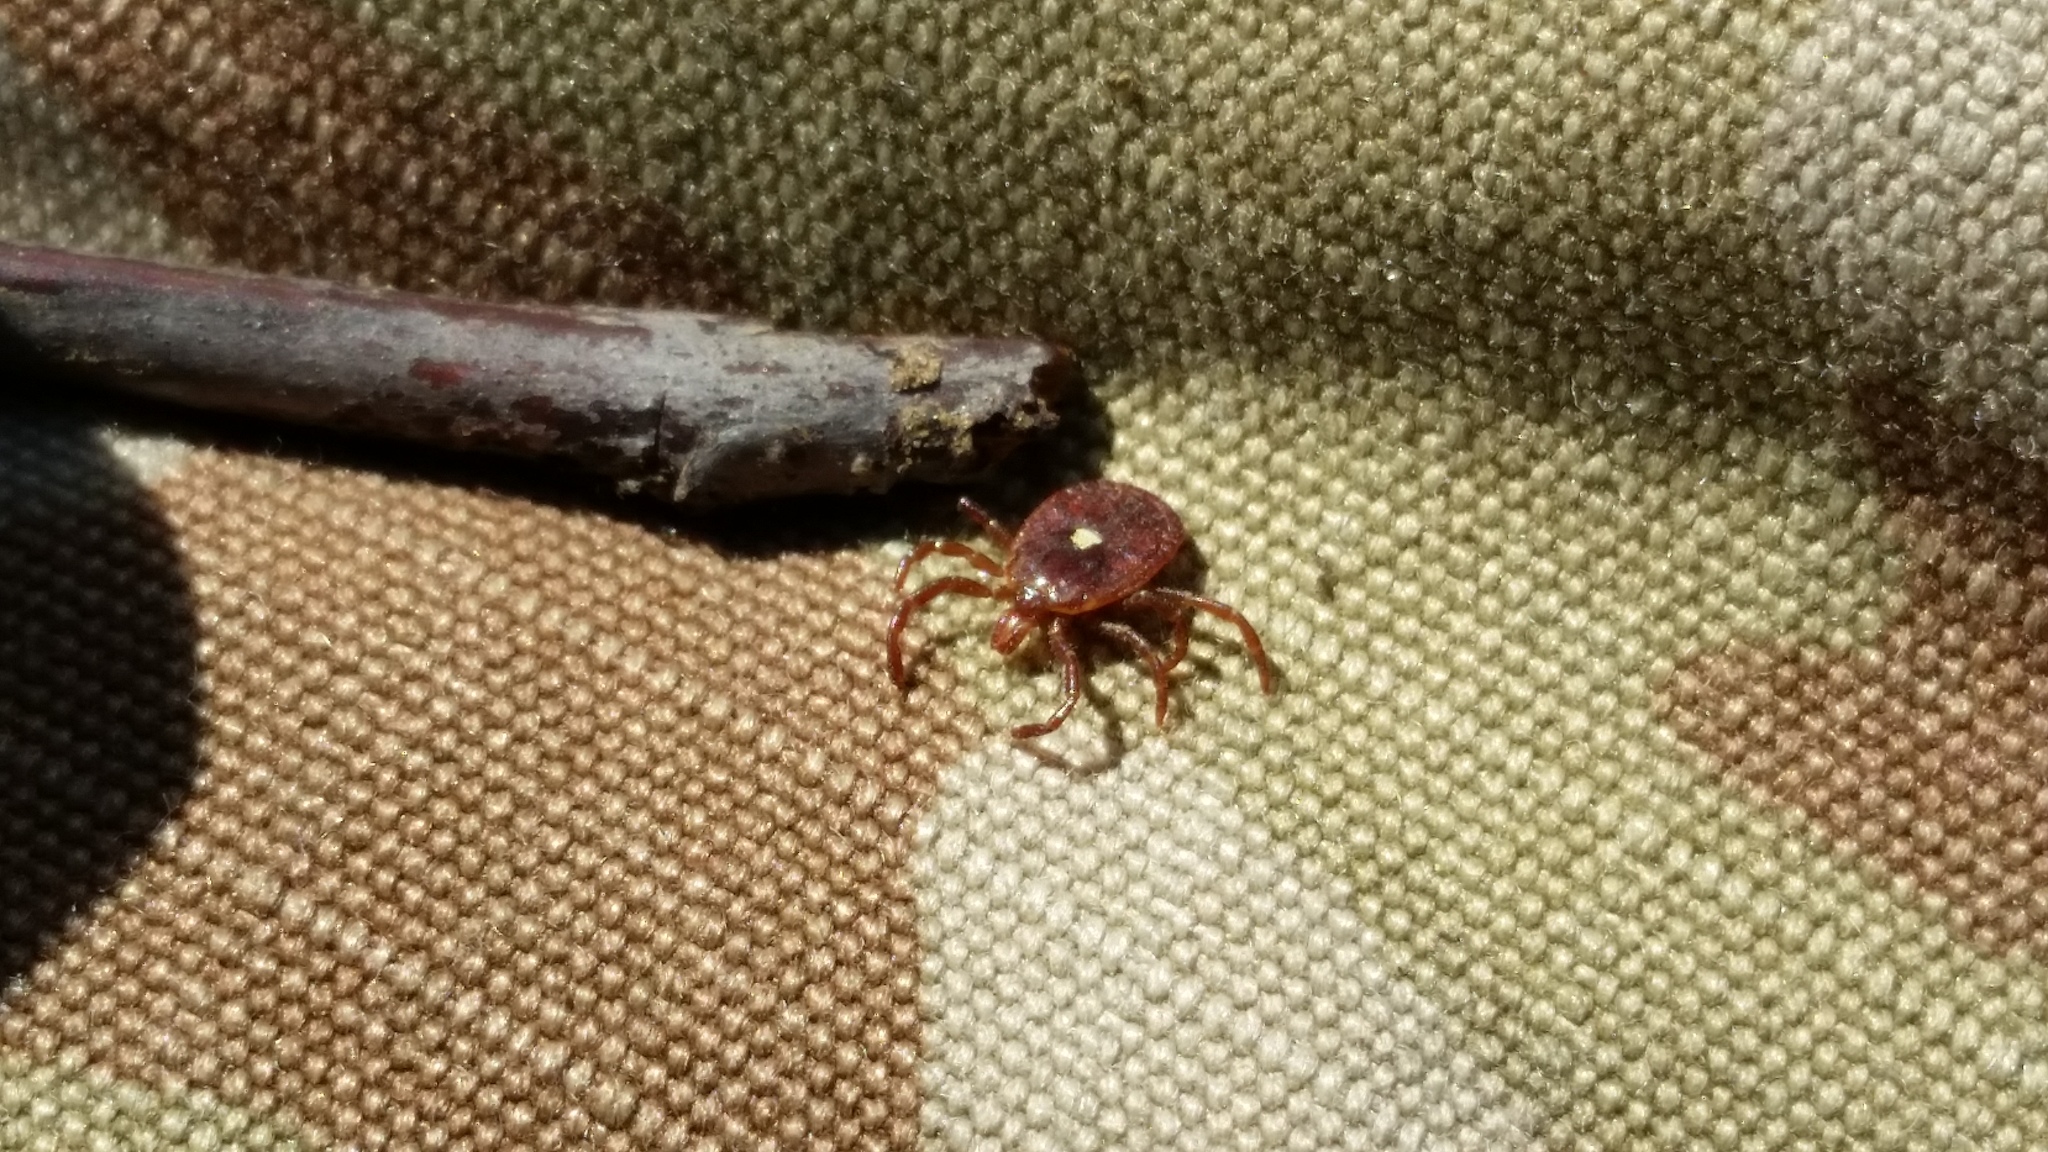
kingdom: Animalia
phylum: Arthropoda
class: Arachnida
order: Ixodida
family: Ixodidae
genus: Amblyomma
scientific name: Amblyomma americanum
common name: Lone star tick
